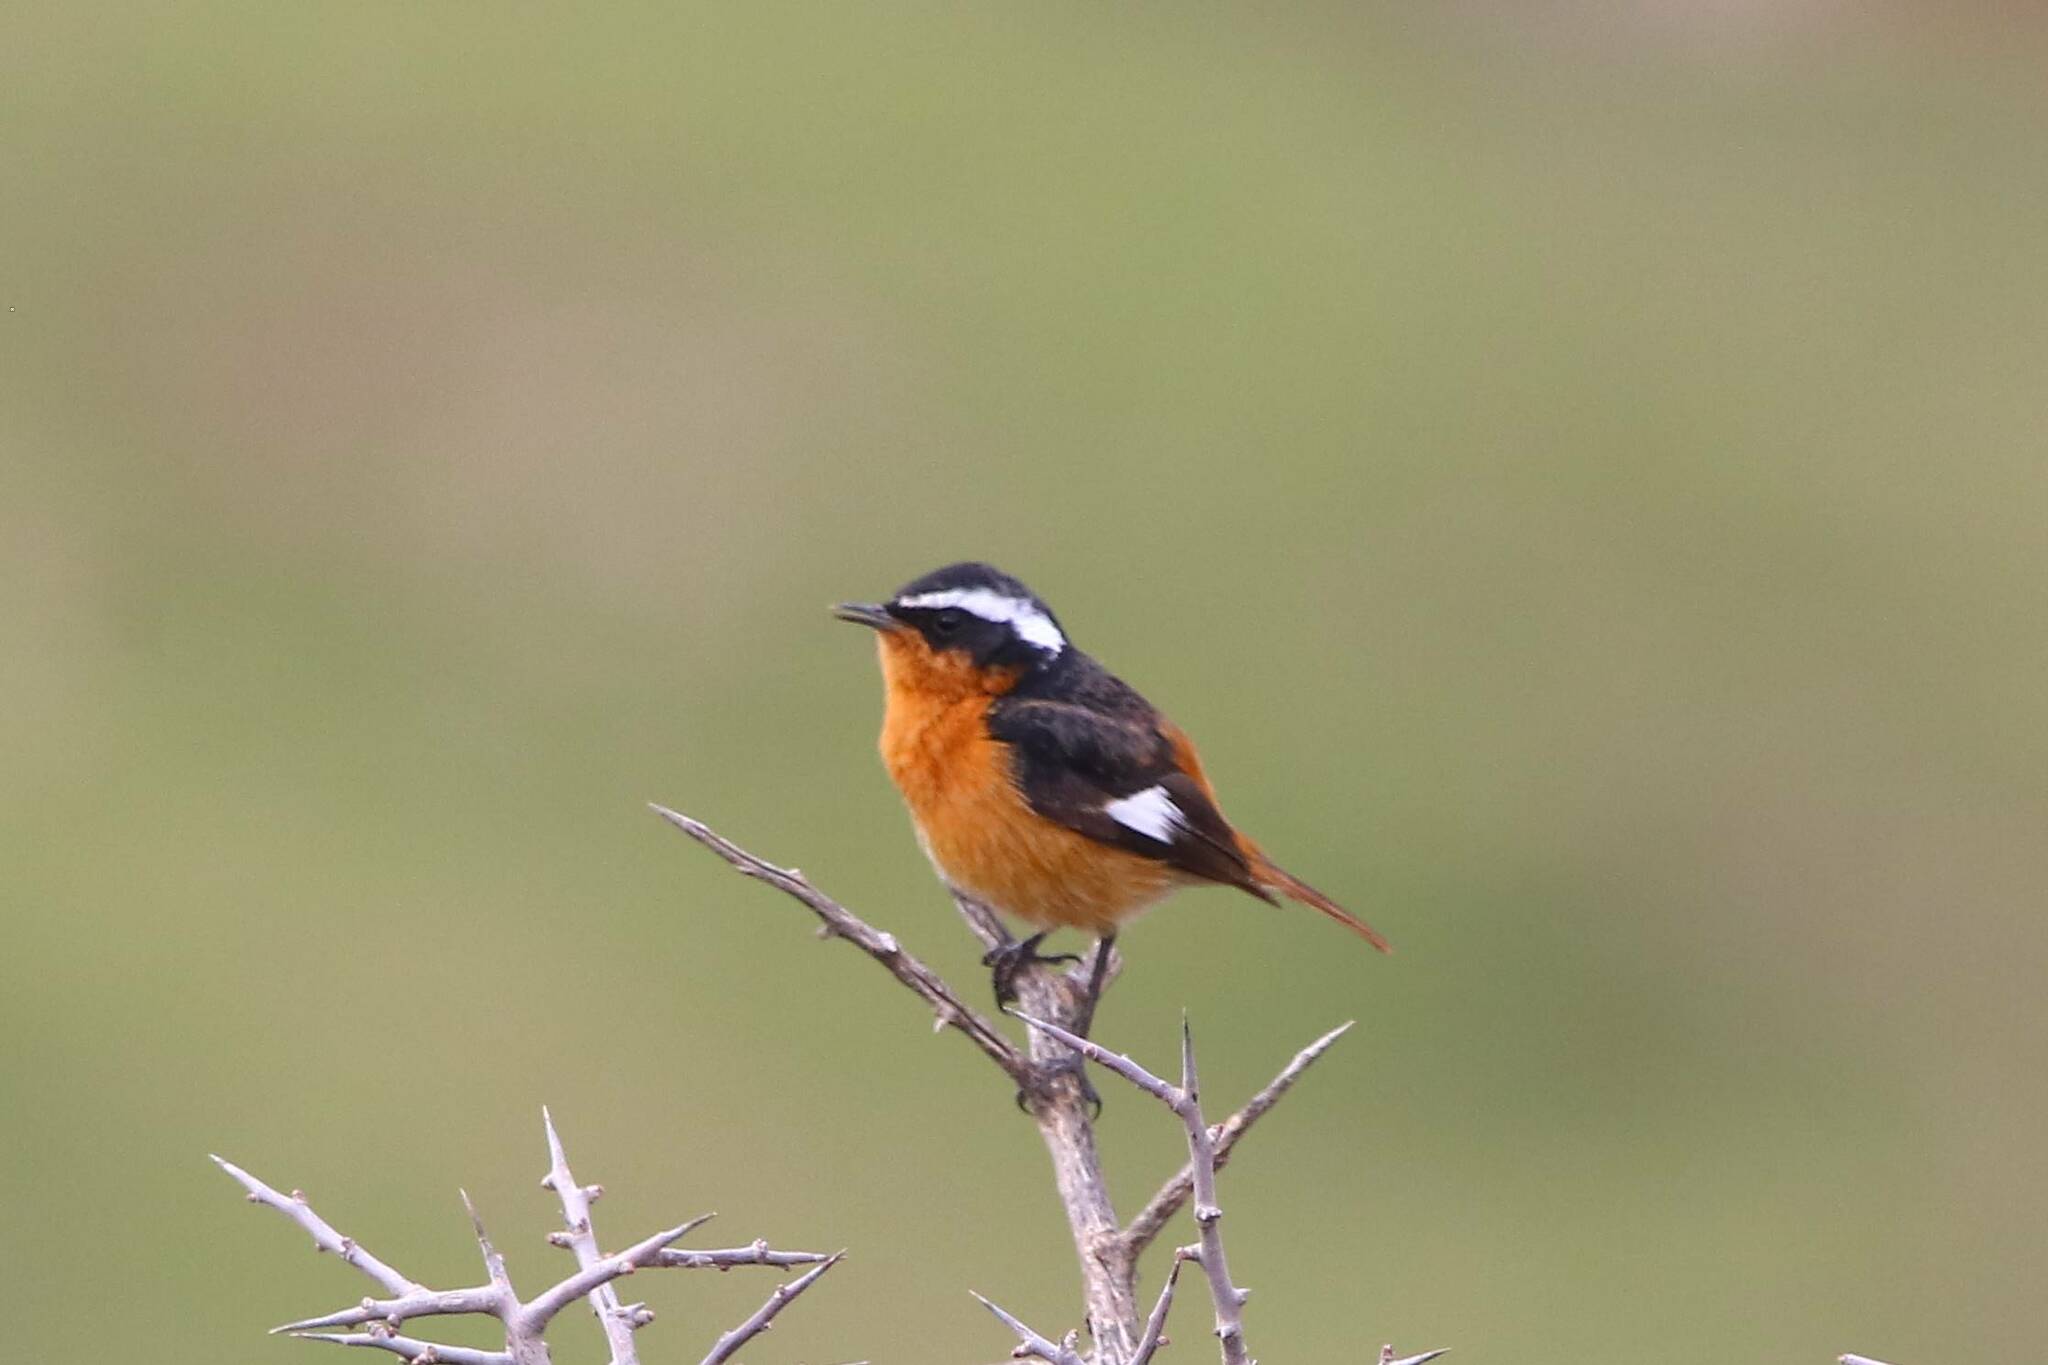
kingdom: Animalia
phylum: Chordata
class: Aves
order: Passeriformes
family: Muscicapidae
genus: Phoenicurus
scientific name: Phoenicurus moussieri
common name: Moussier's redstart
